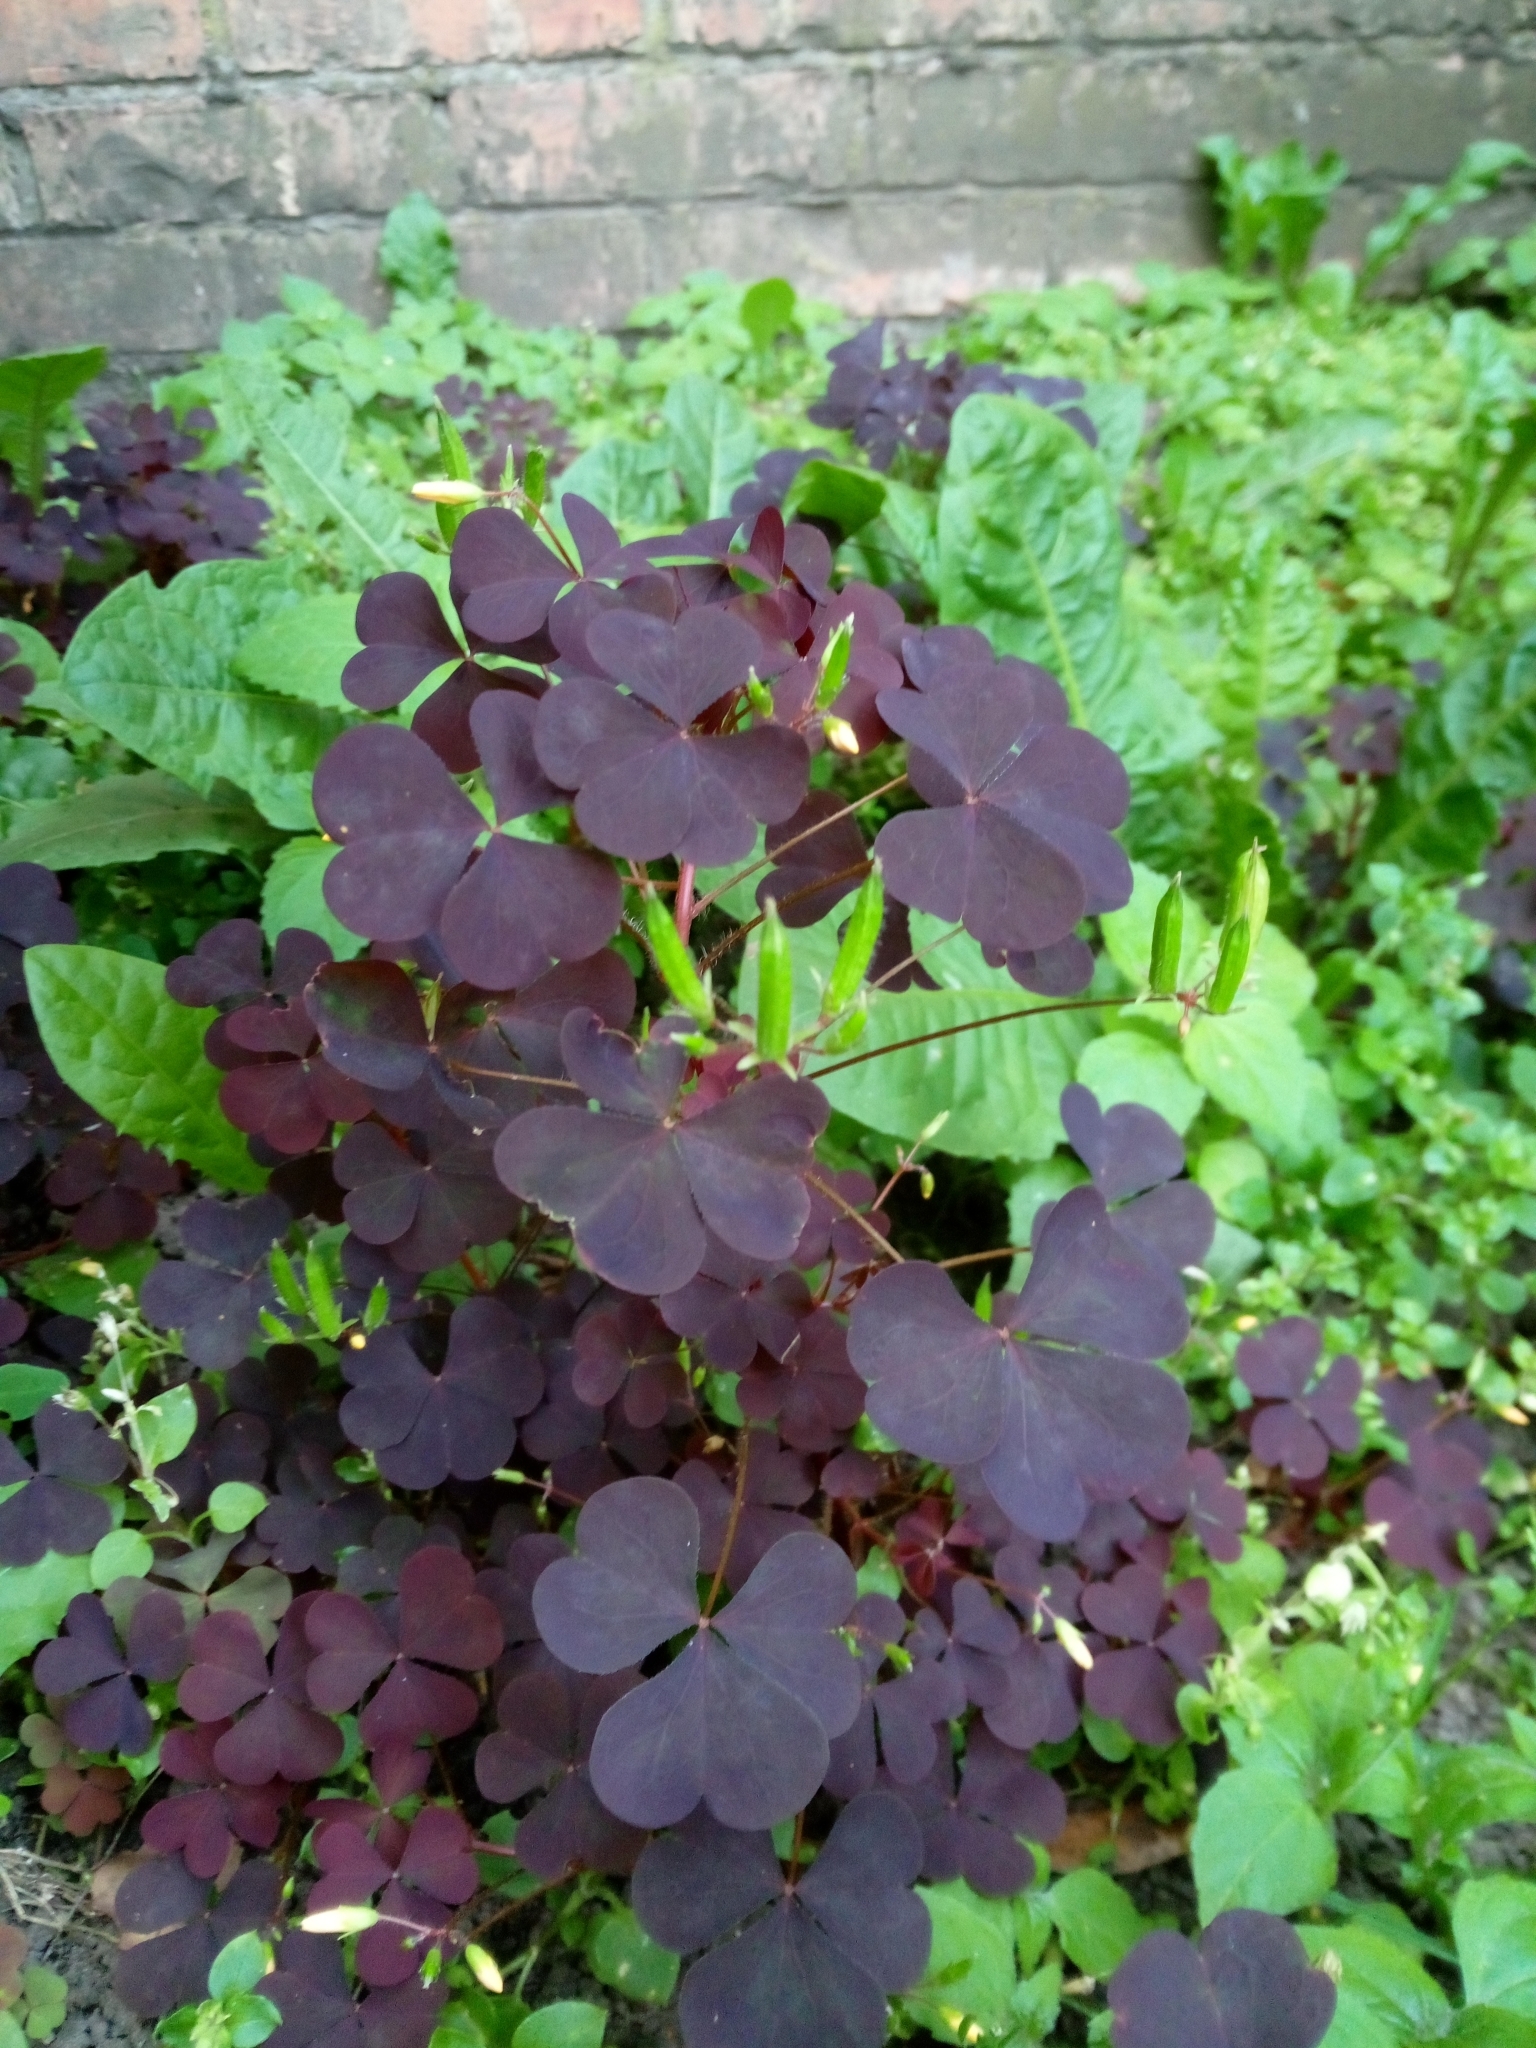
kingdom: Plantae
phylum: Tracheophyta
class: Magnoliopsida
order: Oxalidales
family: Oxalidaceae
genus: Oxalis
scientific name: Oxalis stricta
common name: Upright yellow-sorrel
